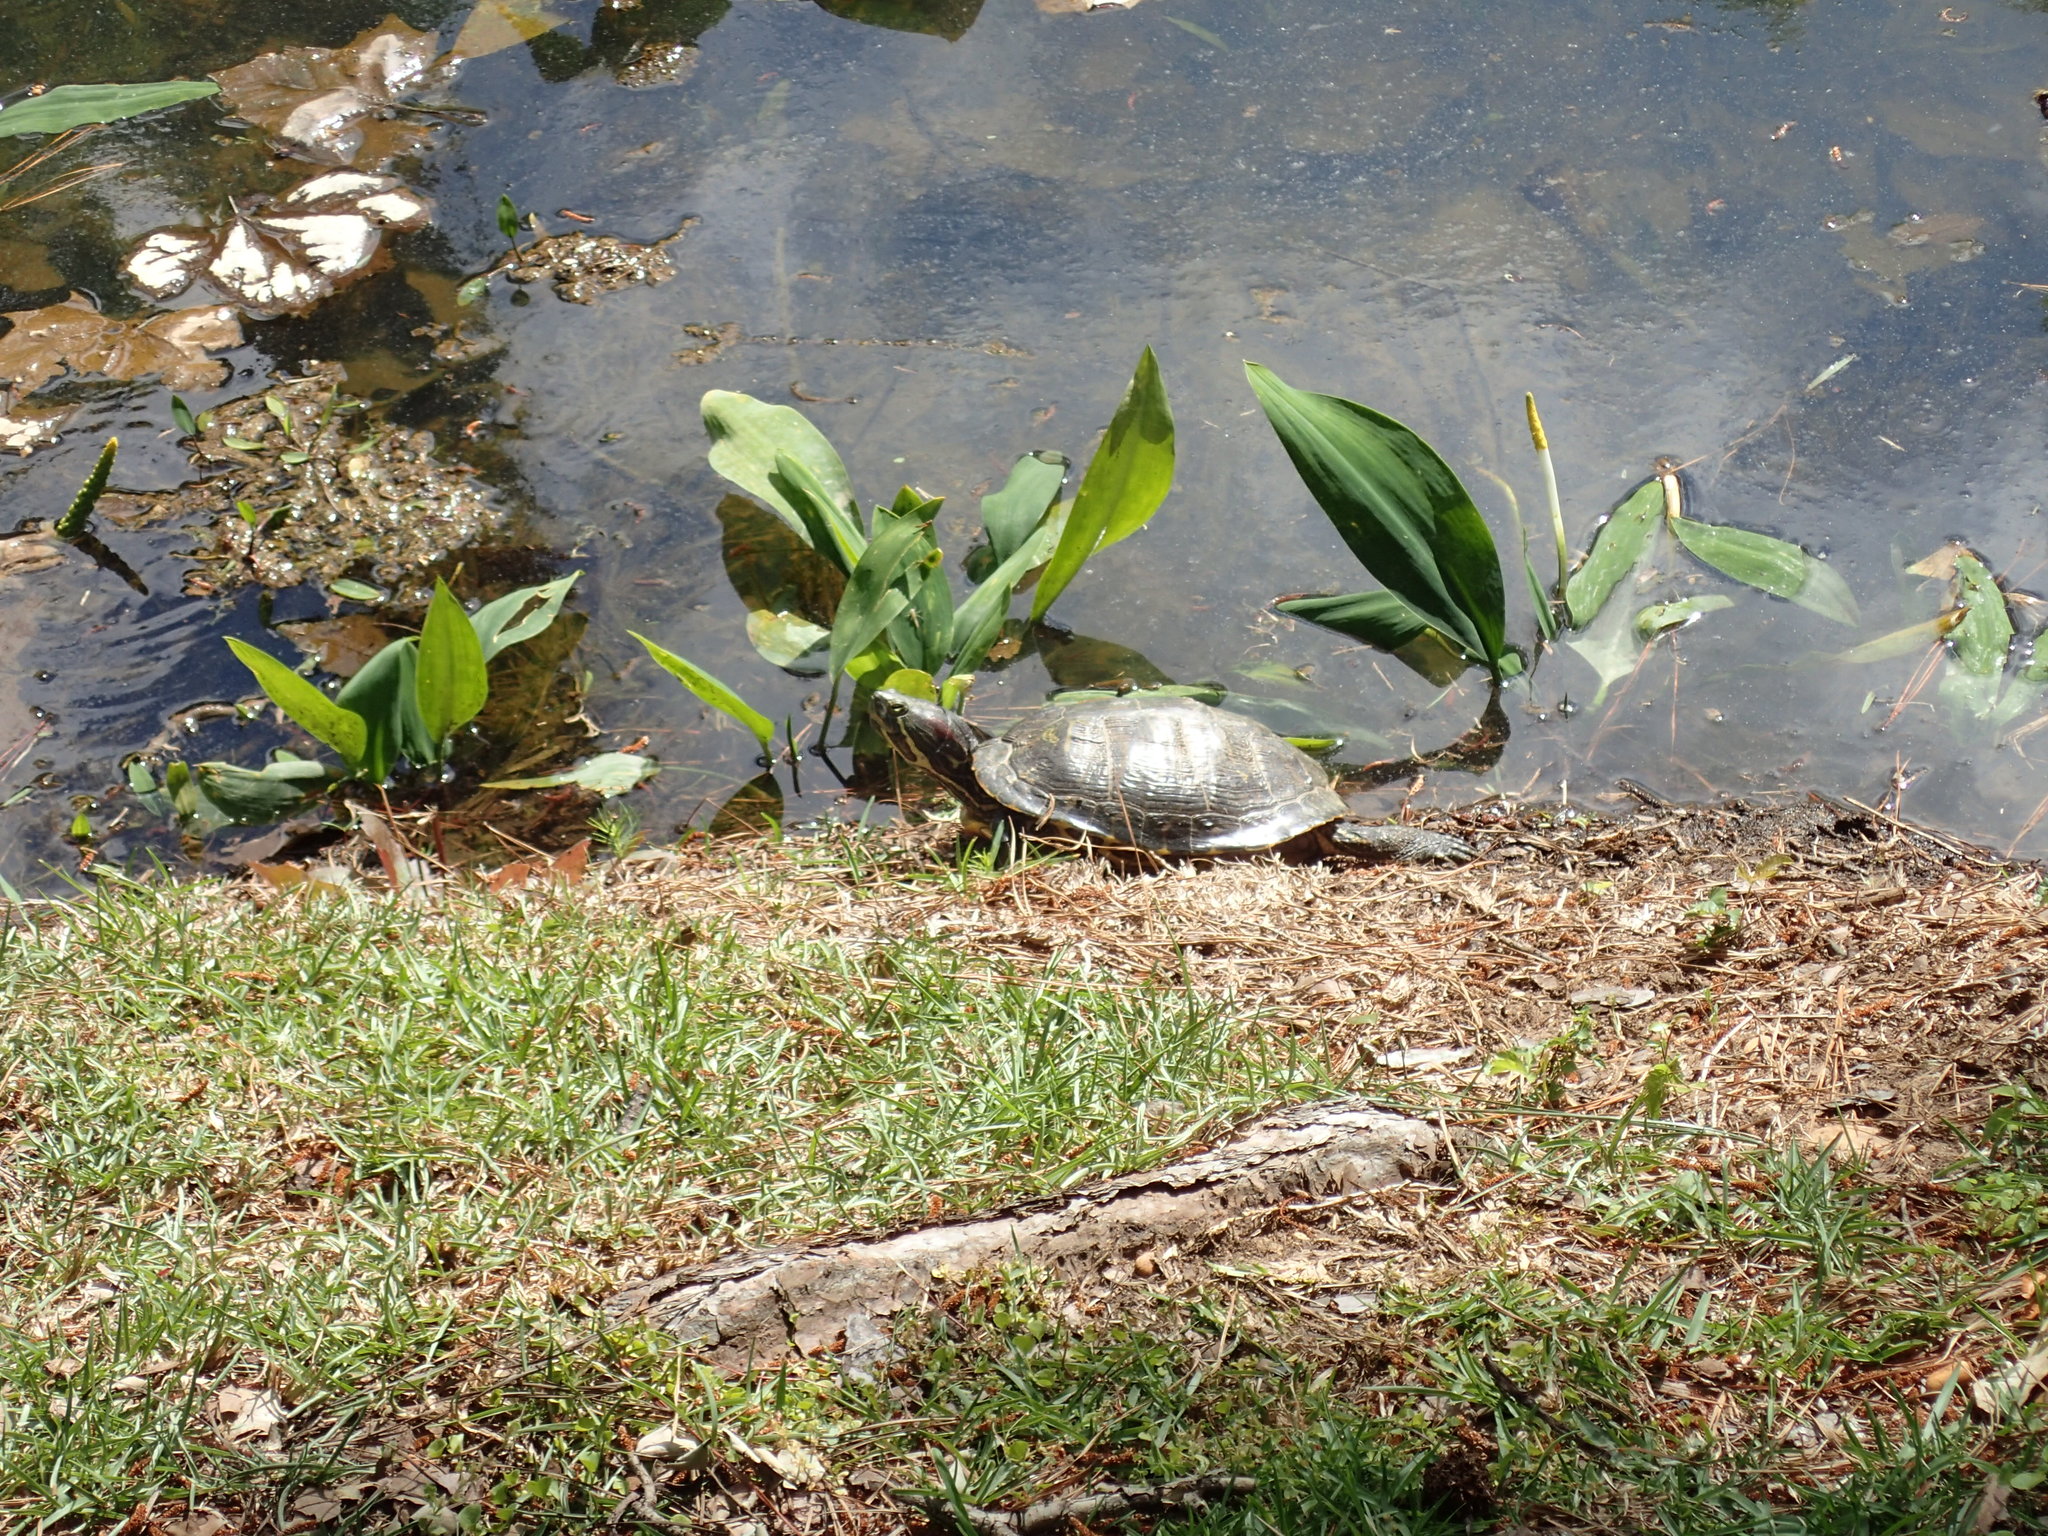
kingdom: Animalia
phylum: Chordata
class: Testudines
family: Emydidae
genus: Trachemys
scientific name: Trachemys scripta
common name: Slider
